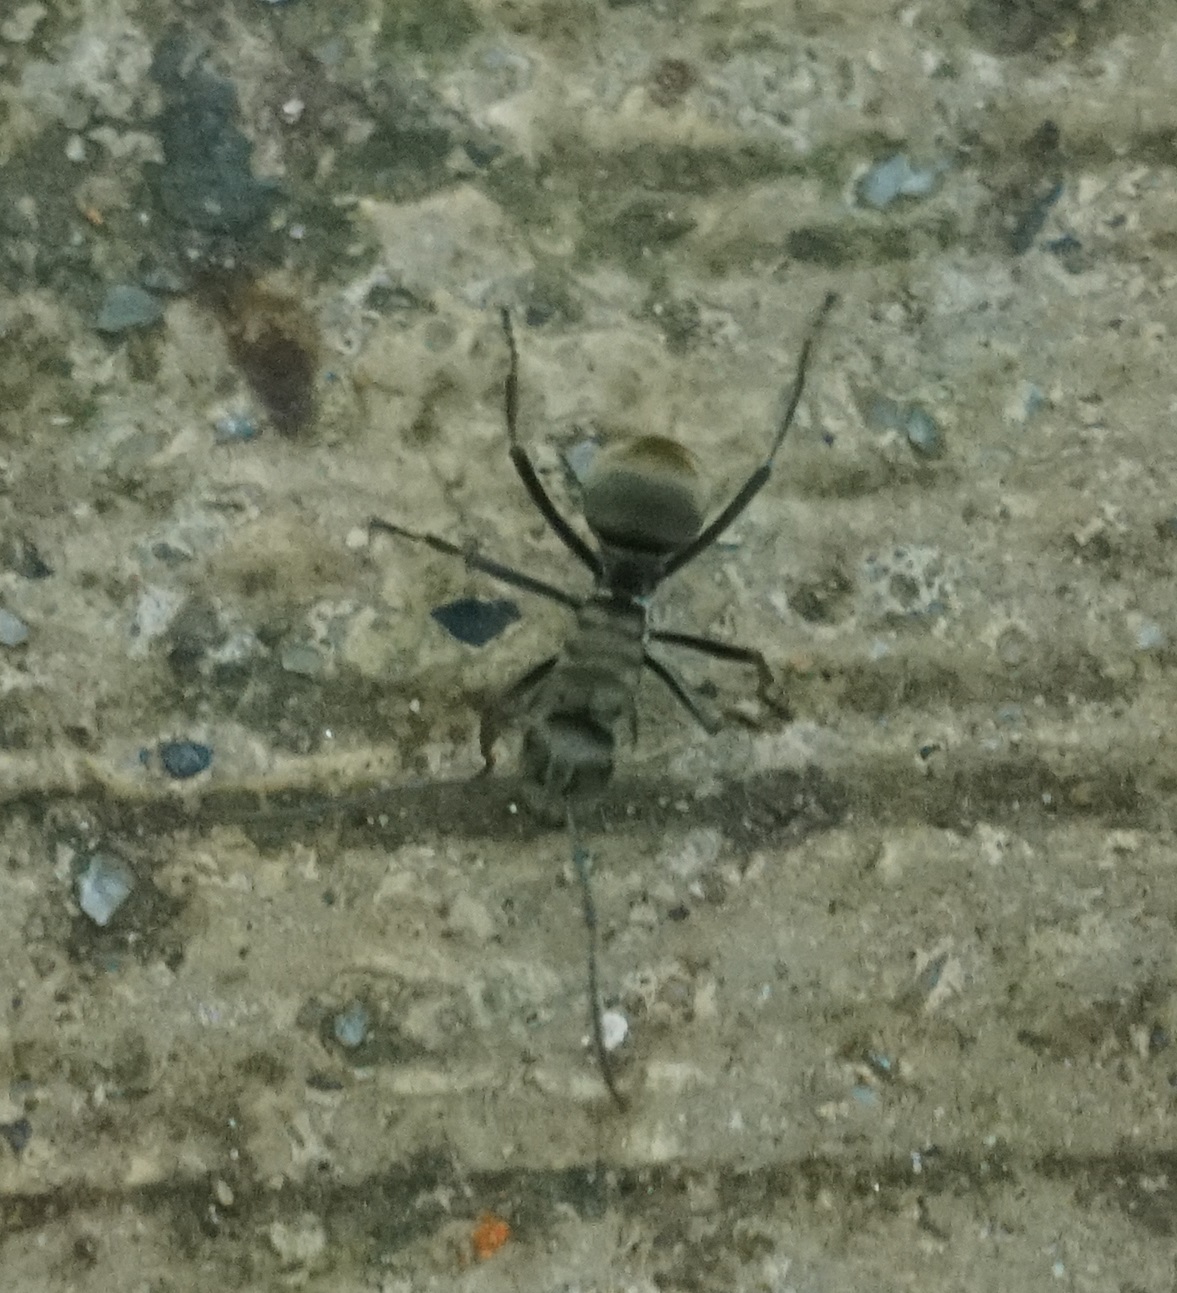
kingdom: Animalia
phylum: Arthropoda
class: Insecta
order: Hymenoptera
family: Formicidae
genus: Polyrhachis
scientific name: Polyrhachis foreli
